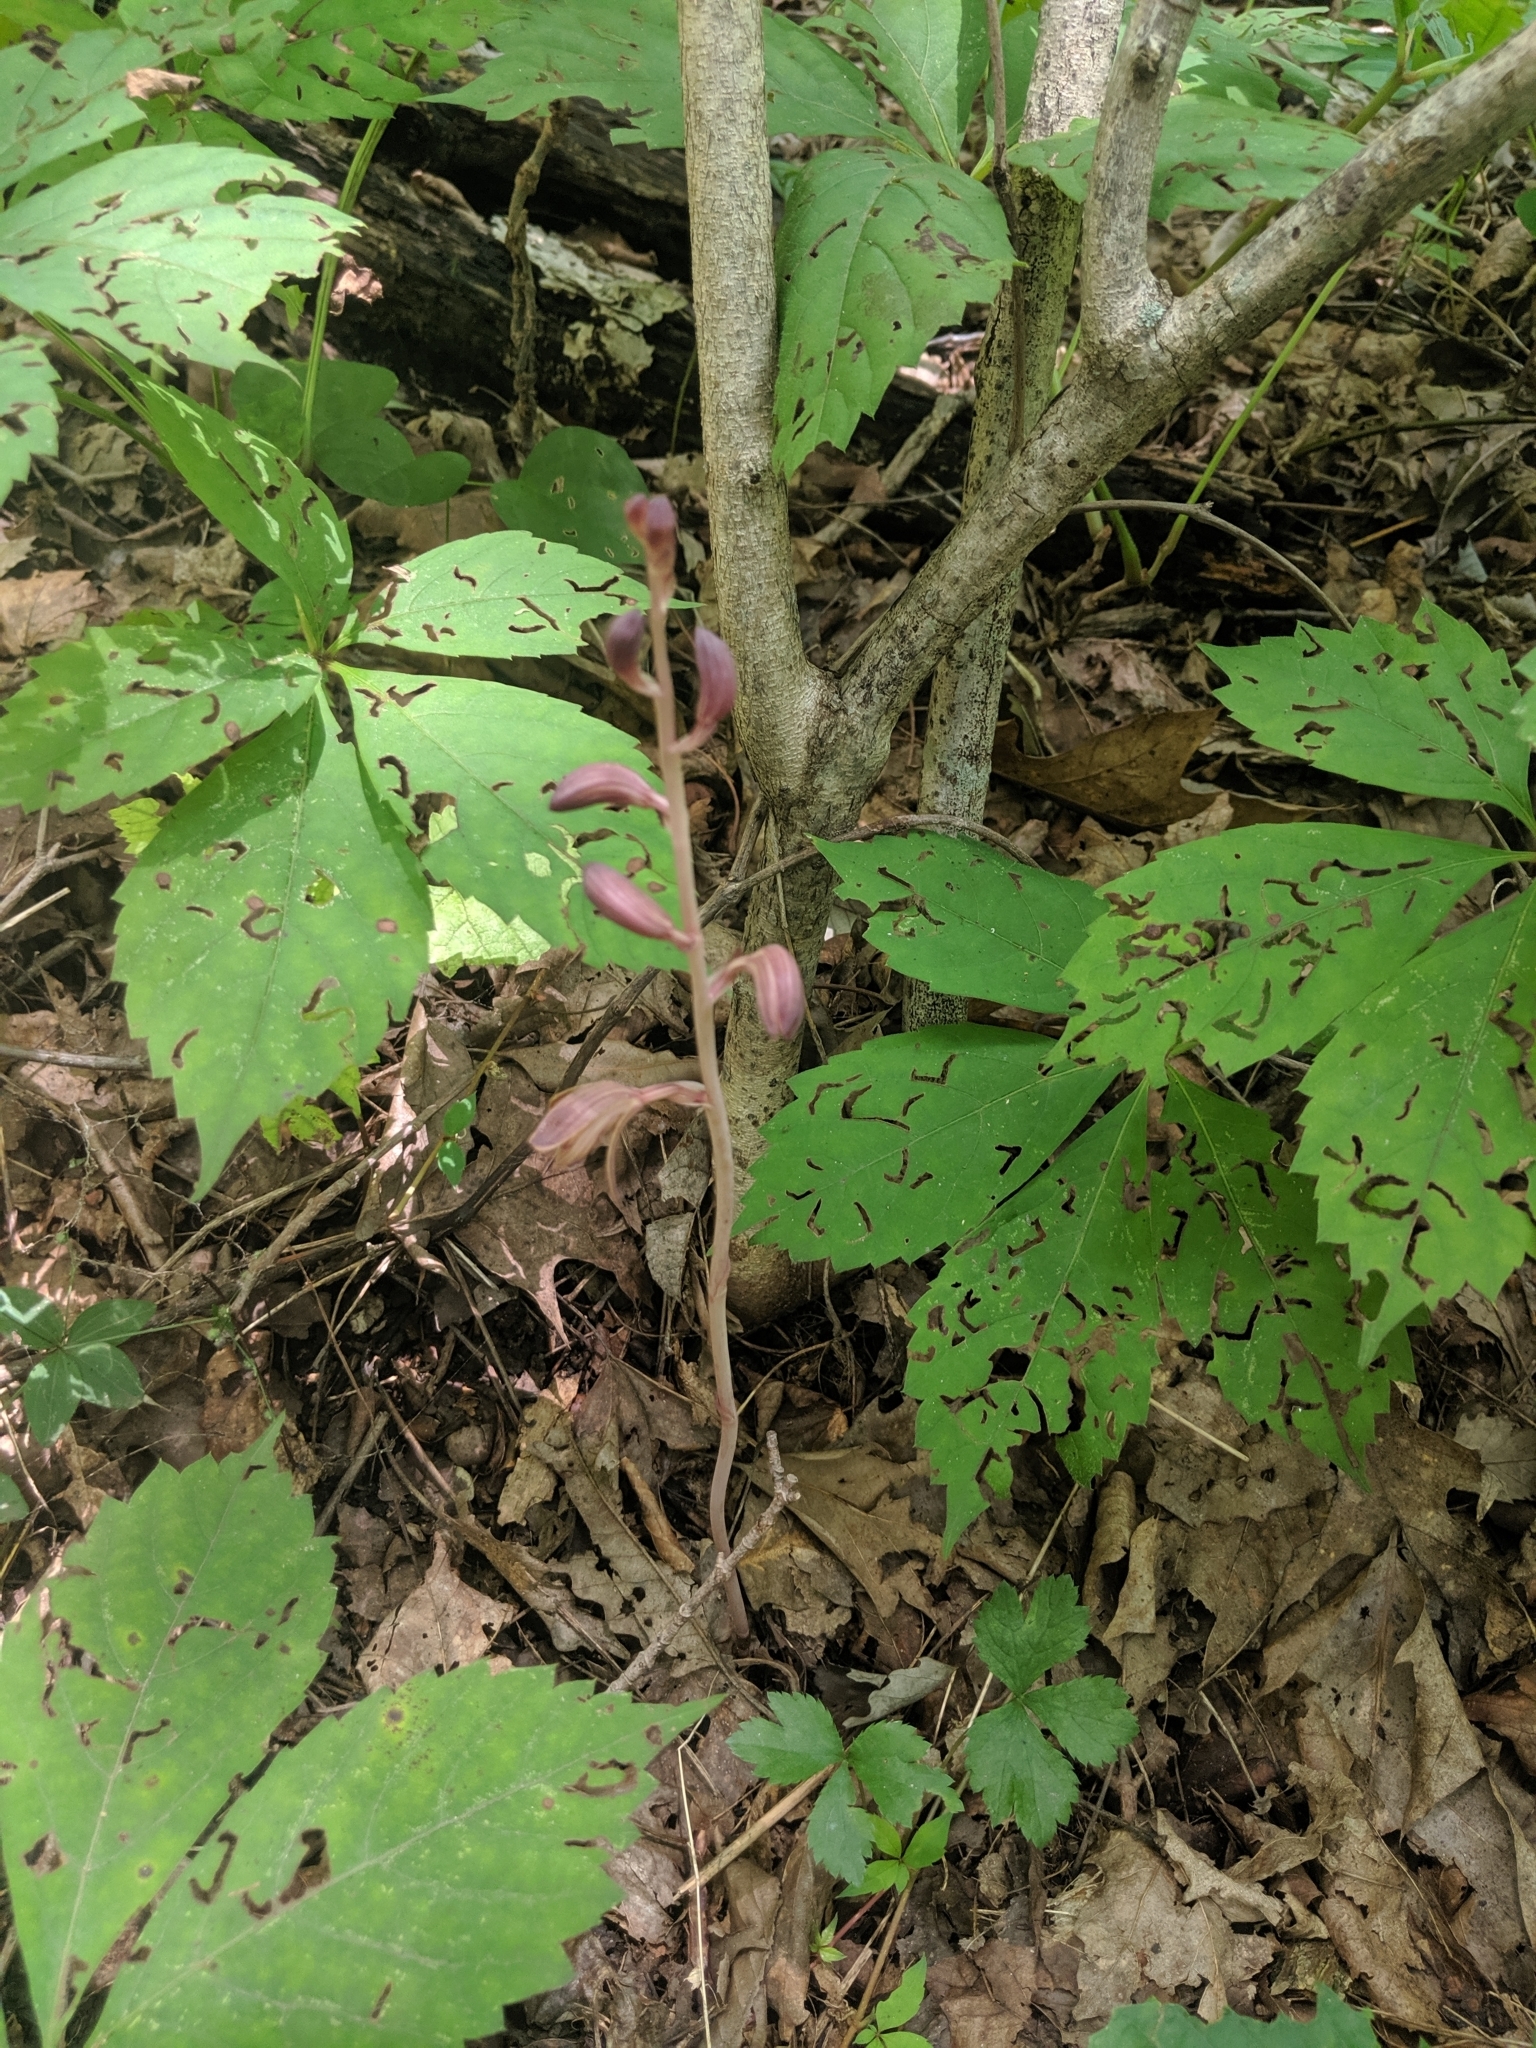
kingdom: Plantae
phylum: Tracheophyta
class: Liliopsida
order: Asparagales
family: Orchidaceae
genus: Bletia
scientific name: Bletia spicata
